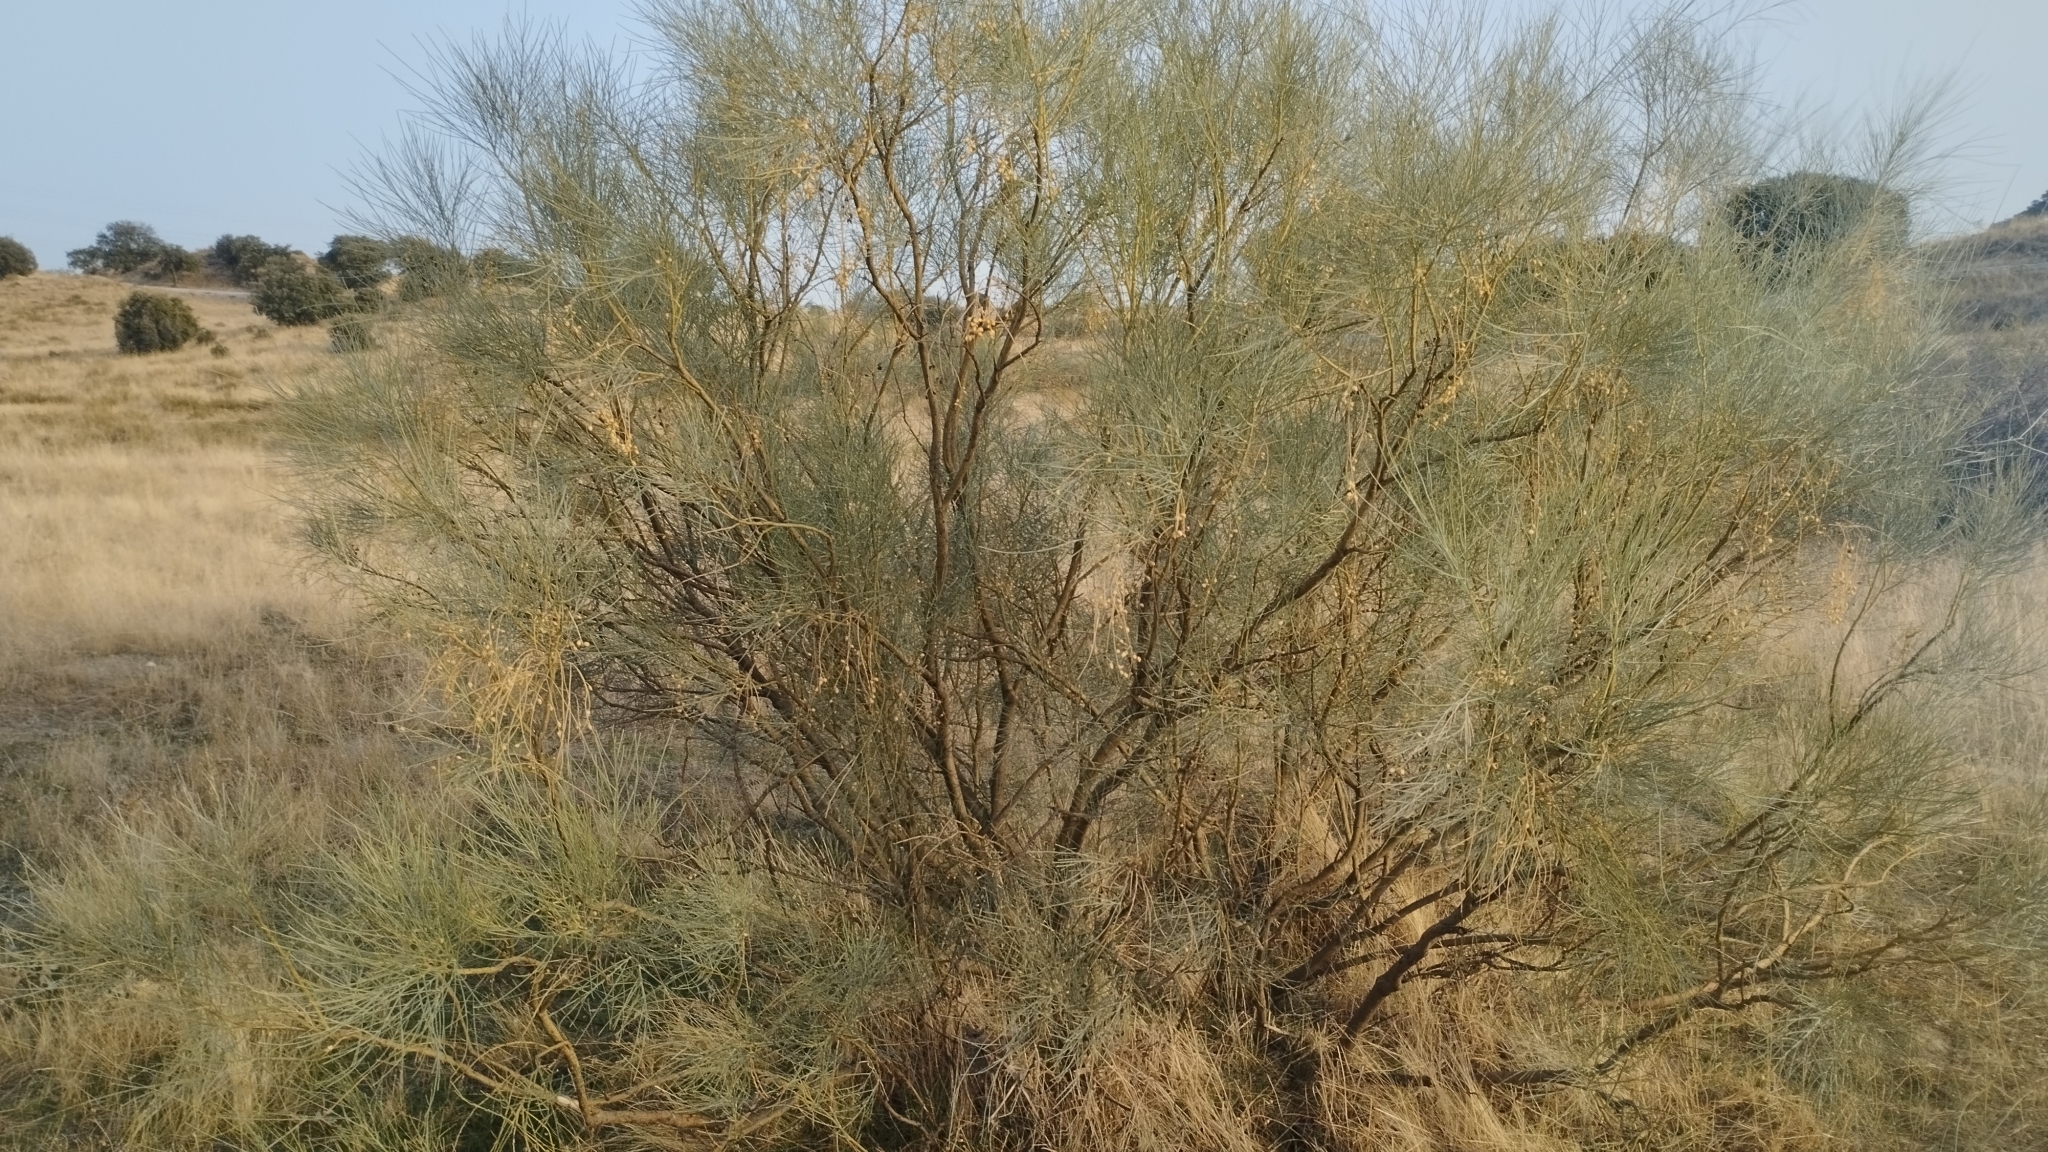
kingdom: Plantae
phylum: Tracheophyta
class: Magnoliopsida
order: Fabales
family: Fabaceae
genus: Retama
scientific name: Retama sphaerocarpa
